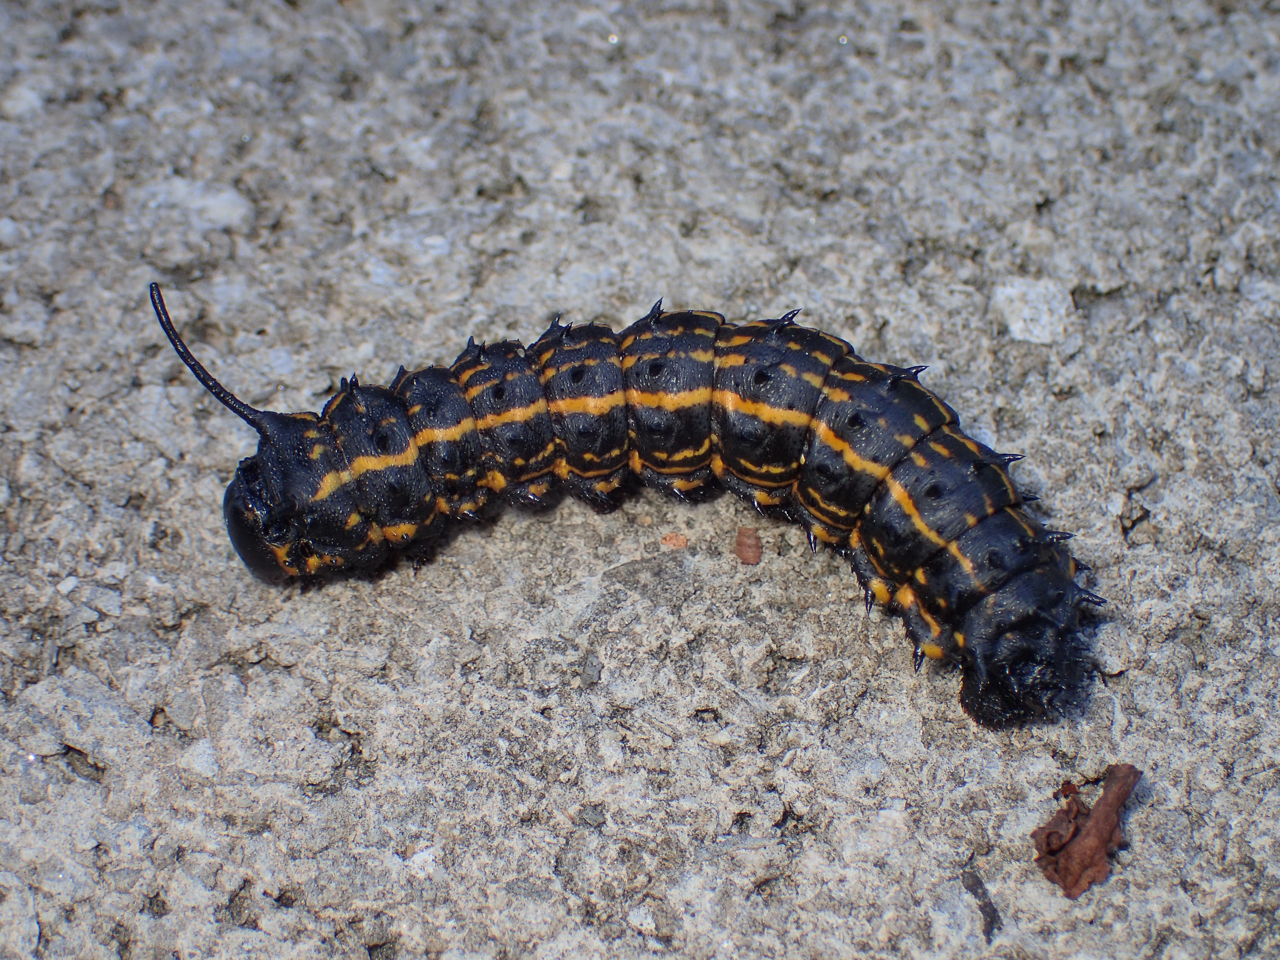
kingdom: Animalia
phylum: Arthropoda
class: Insecta
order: Lepidoptera
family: Saturniidae
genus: Anisota
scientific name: Anisota peigleri
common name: Peigler's oakworm moth
